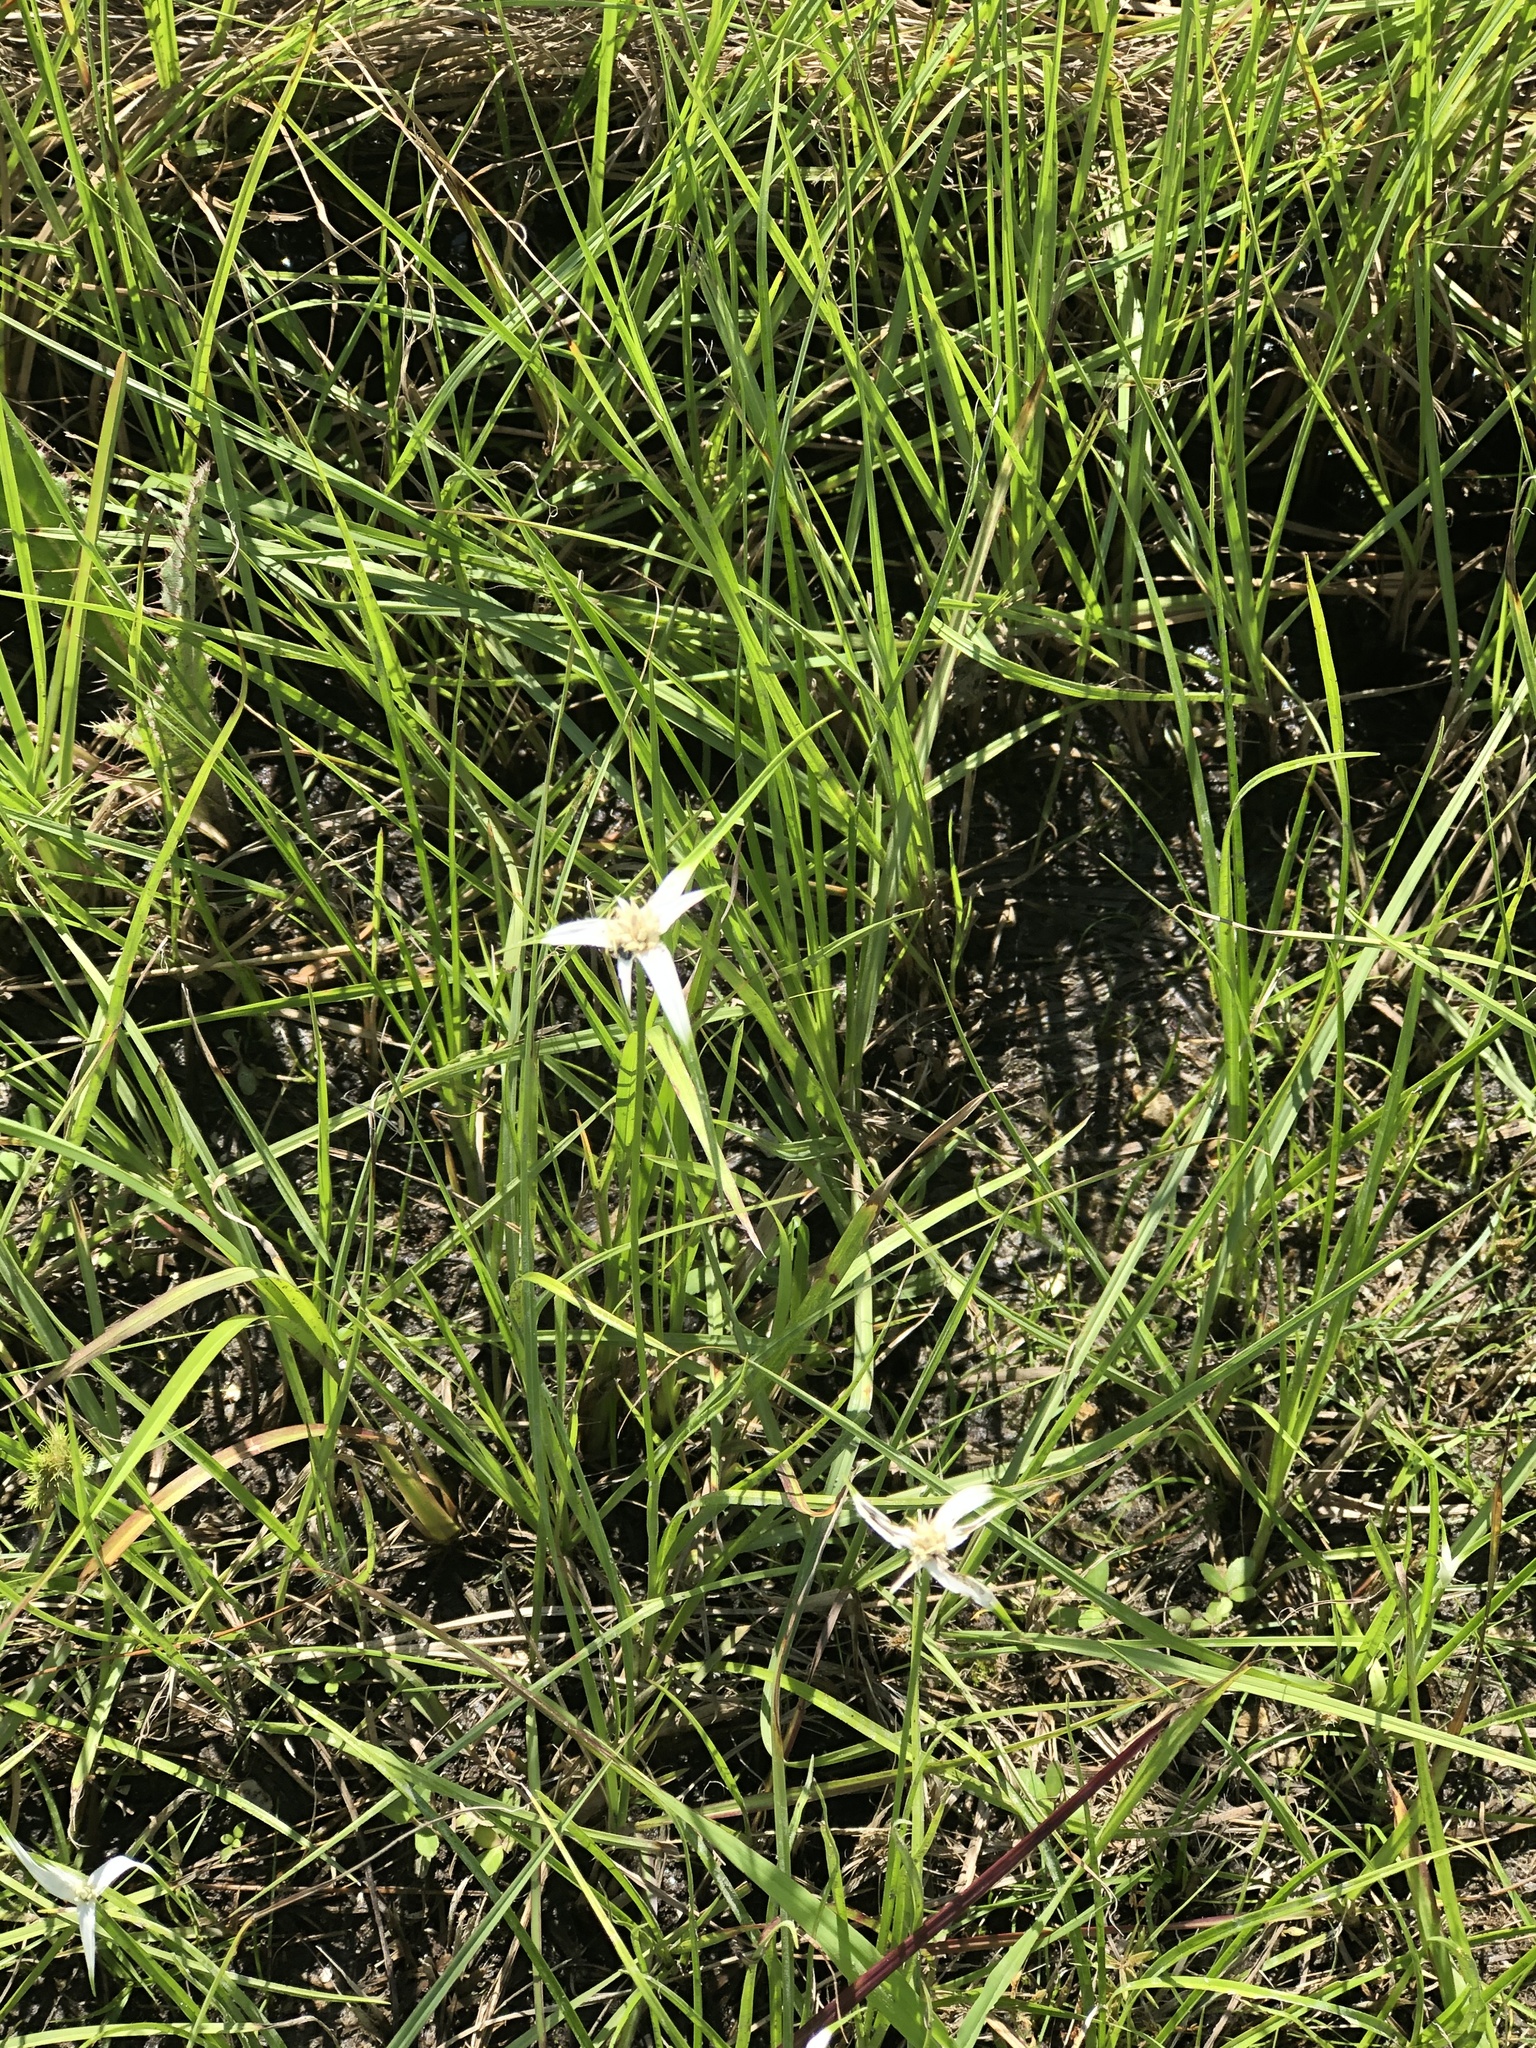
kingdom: Plantae
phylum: Tracheophyta
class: Liliopsida
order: Poales
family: Cyperaceae
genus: Rhynchospora
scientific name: Rhynchospora colorata
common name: Star sedge
